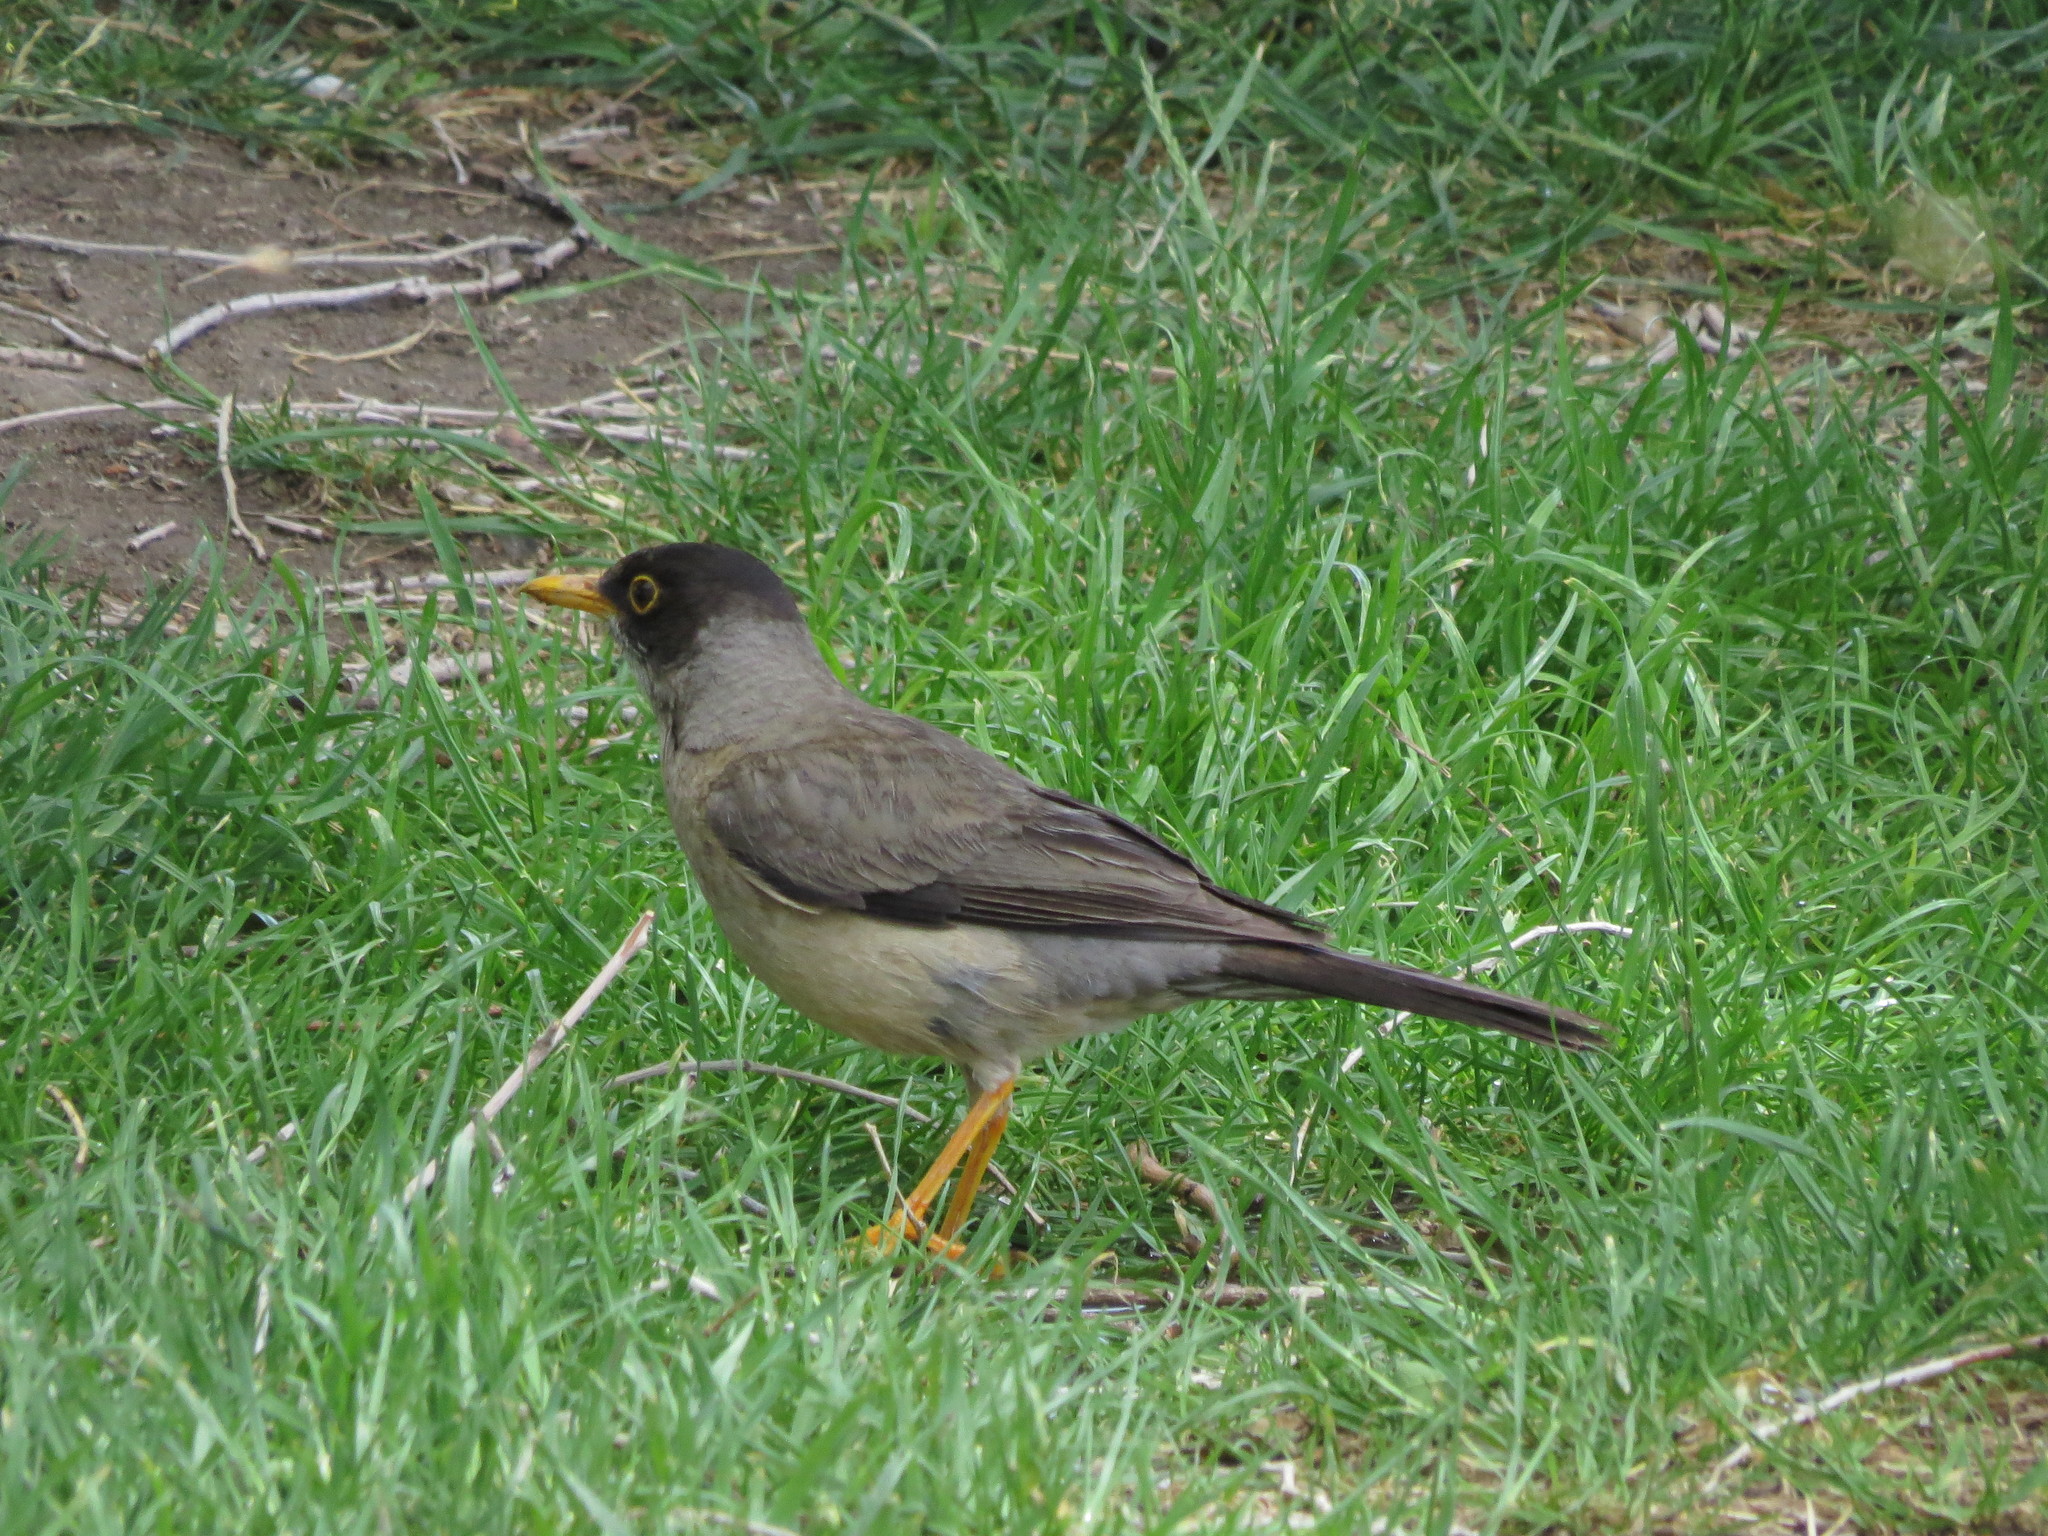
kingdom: Animalia
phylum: Chordata
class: Aves
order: Passeriformes
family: Turdidae
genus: Turdus
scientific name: Turdus falcklandii
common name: Austral thrush
